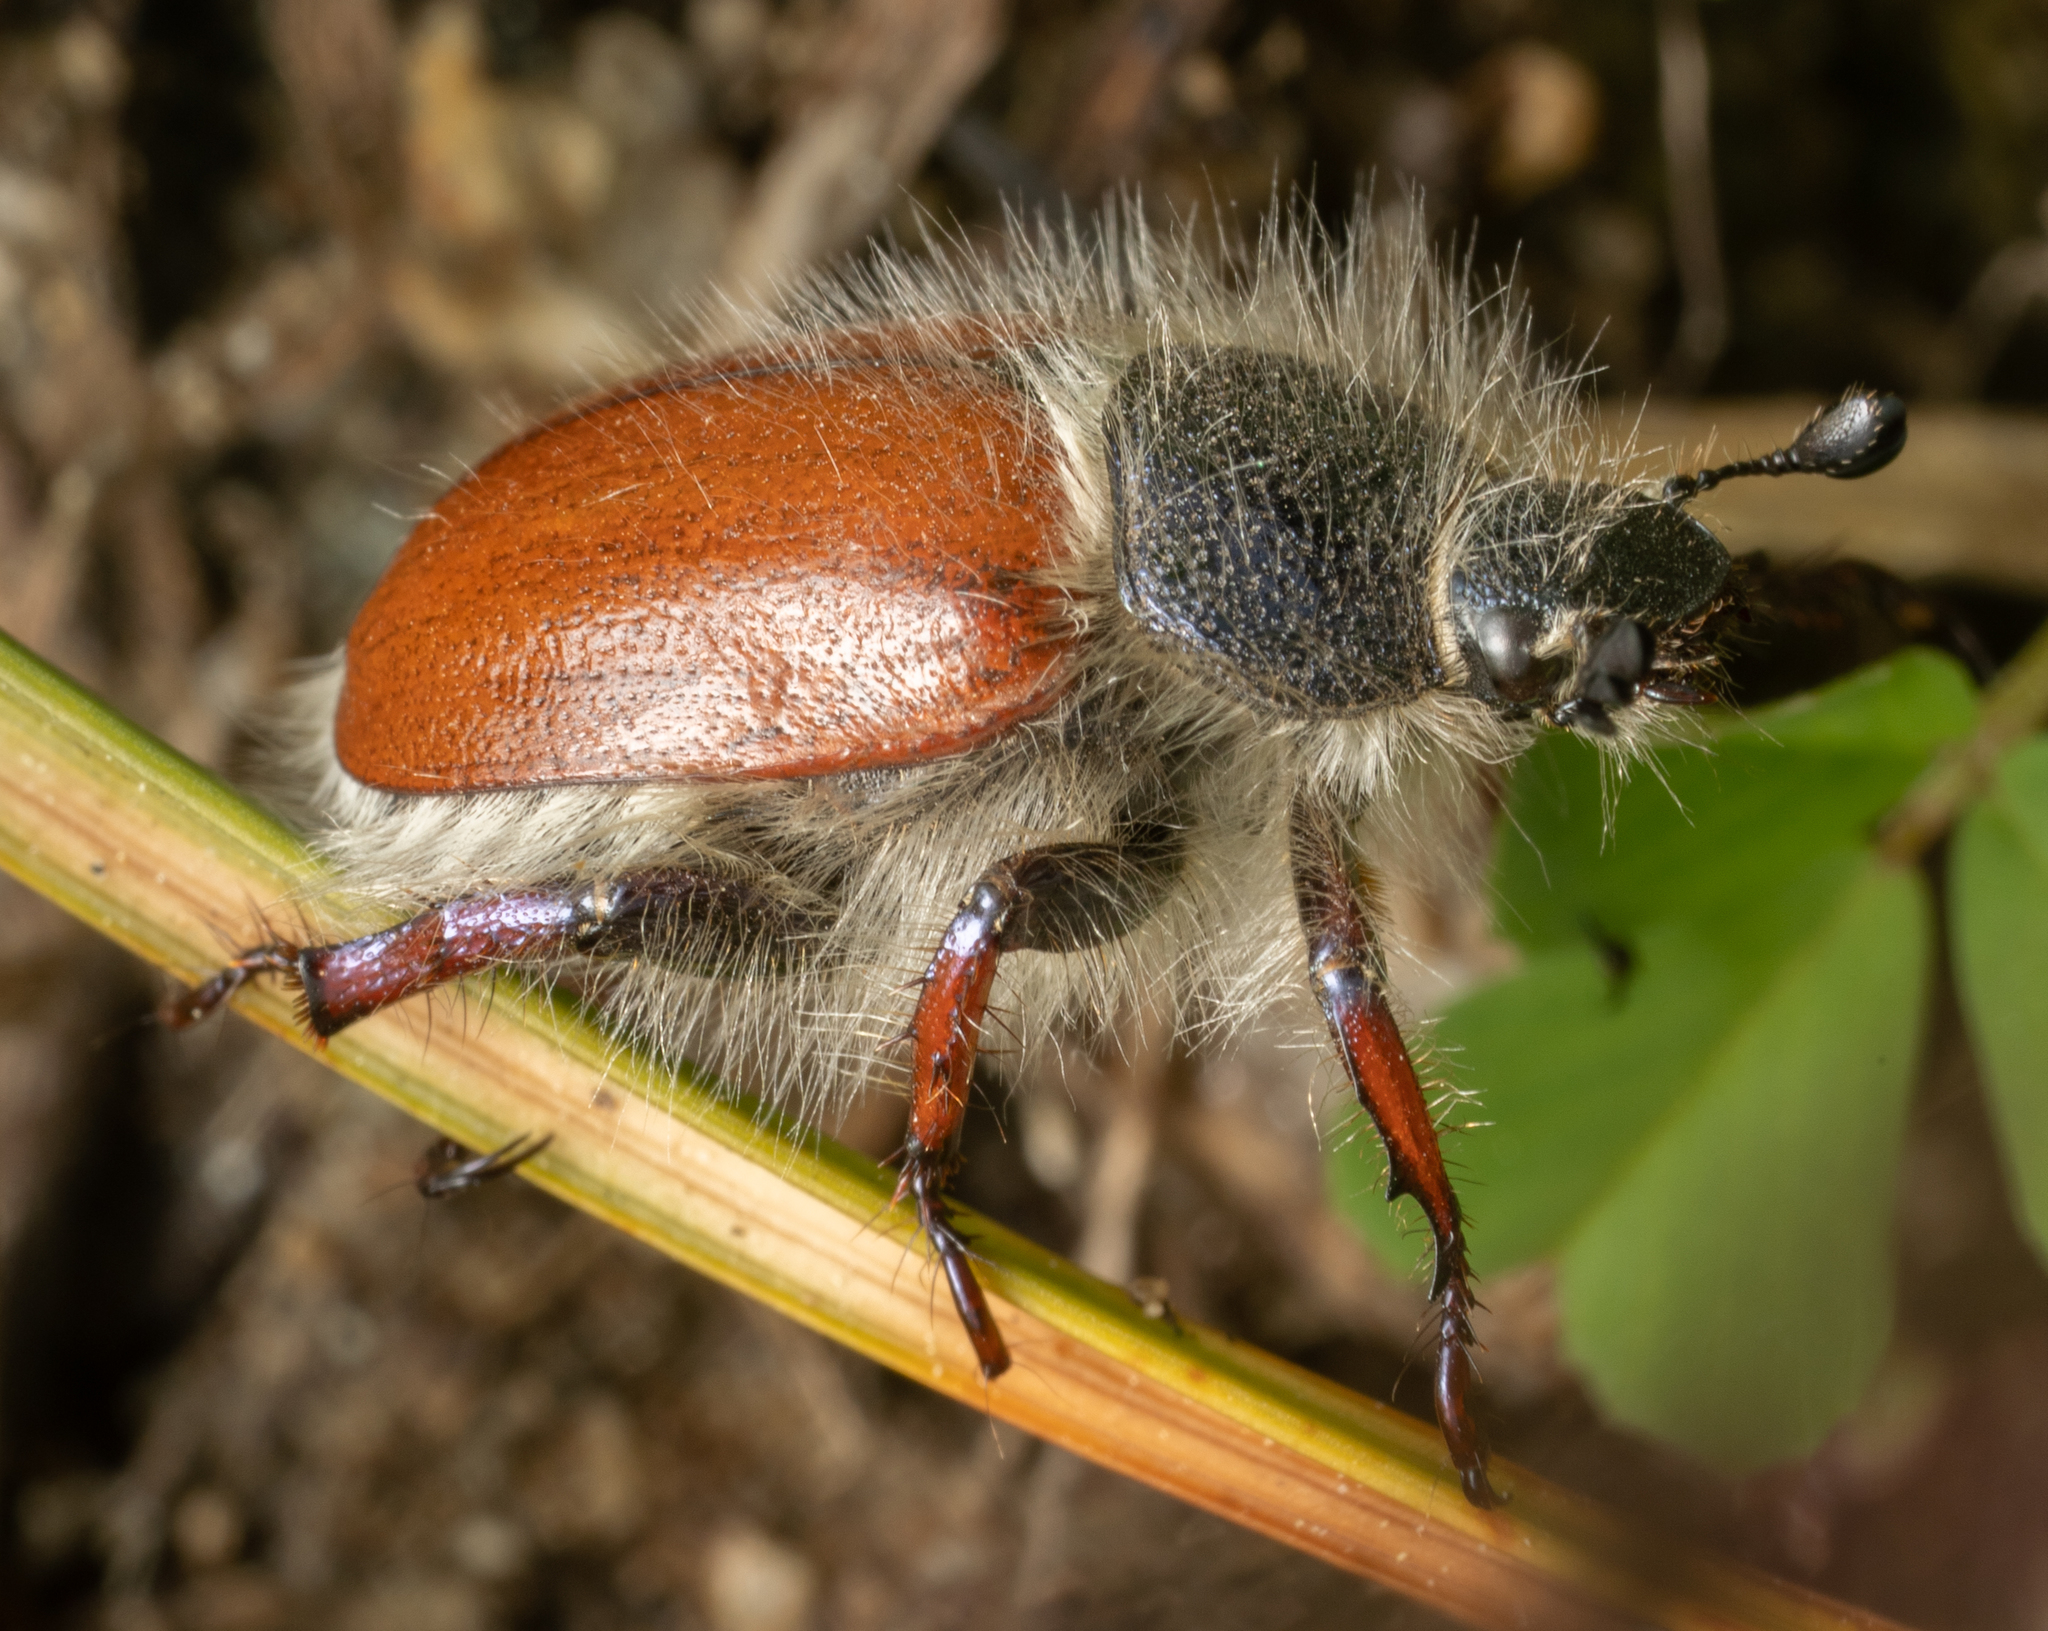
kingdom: Animalia
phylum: Arthropoda
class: Insecta
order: Coleoptera
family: Scarabaeidae
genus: Paracotalpa
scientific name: Paracotalpa ursina
